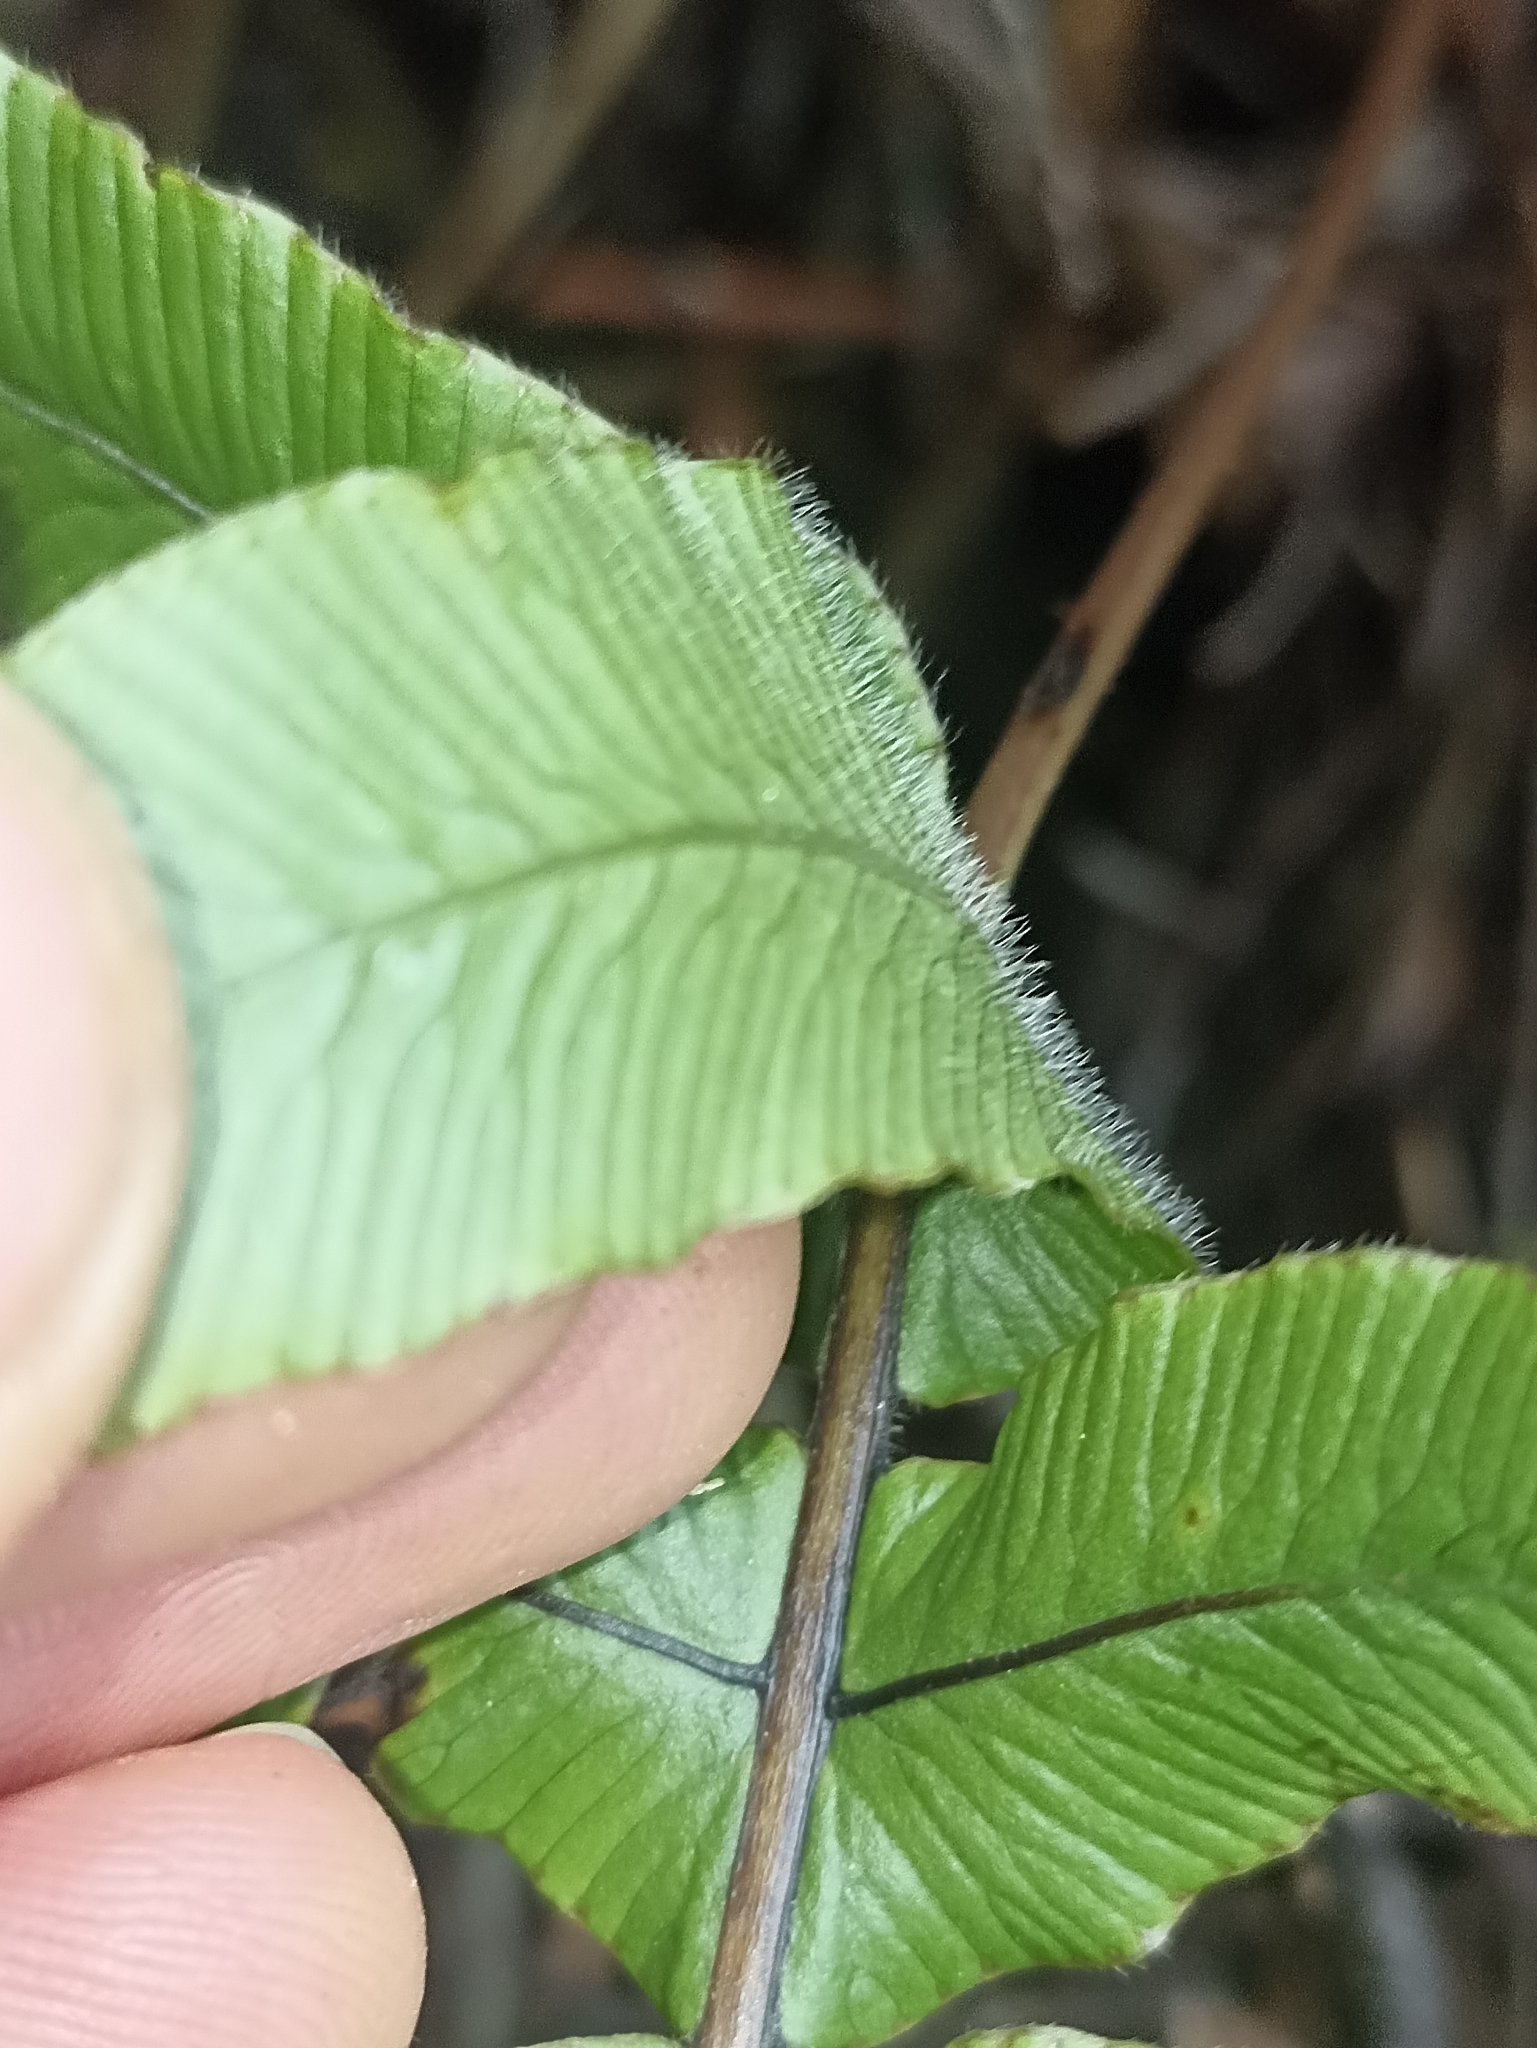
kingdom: Plantae
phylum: Tracheophyta
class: Polypodiopsida
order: Polypodiales
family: Blechnaceae
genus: Cranfillia
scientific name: Cranfillia deltoides
